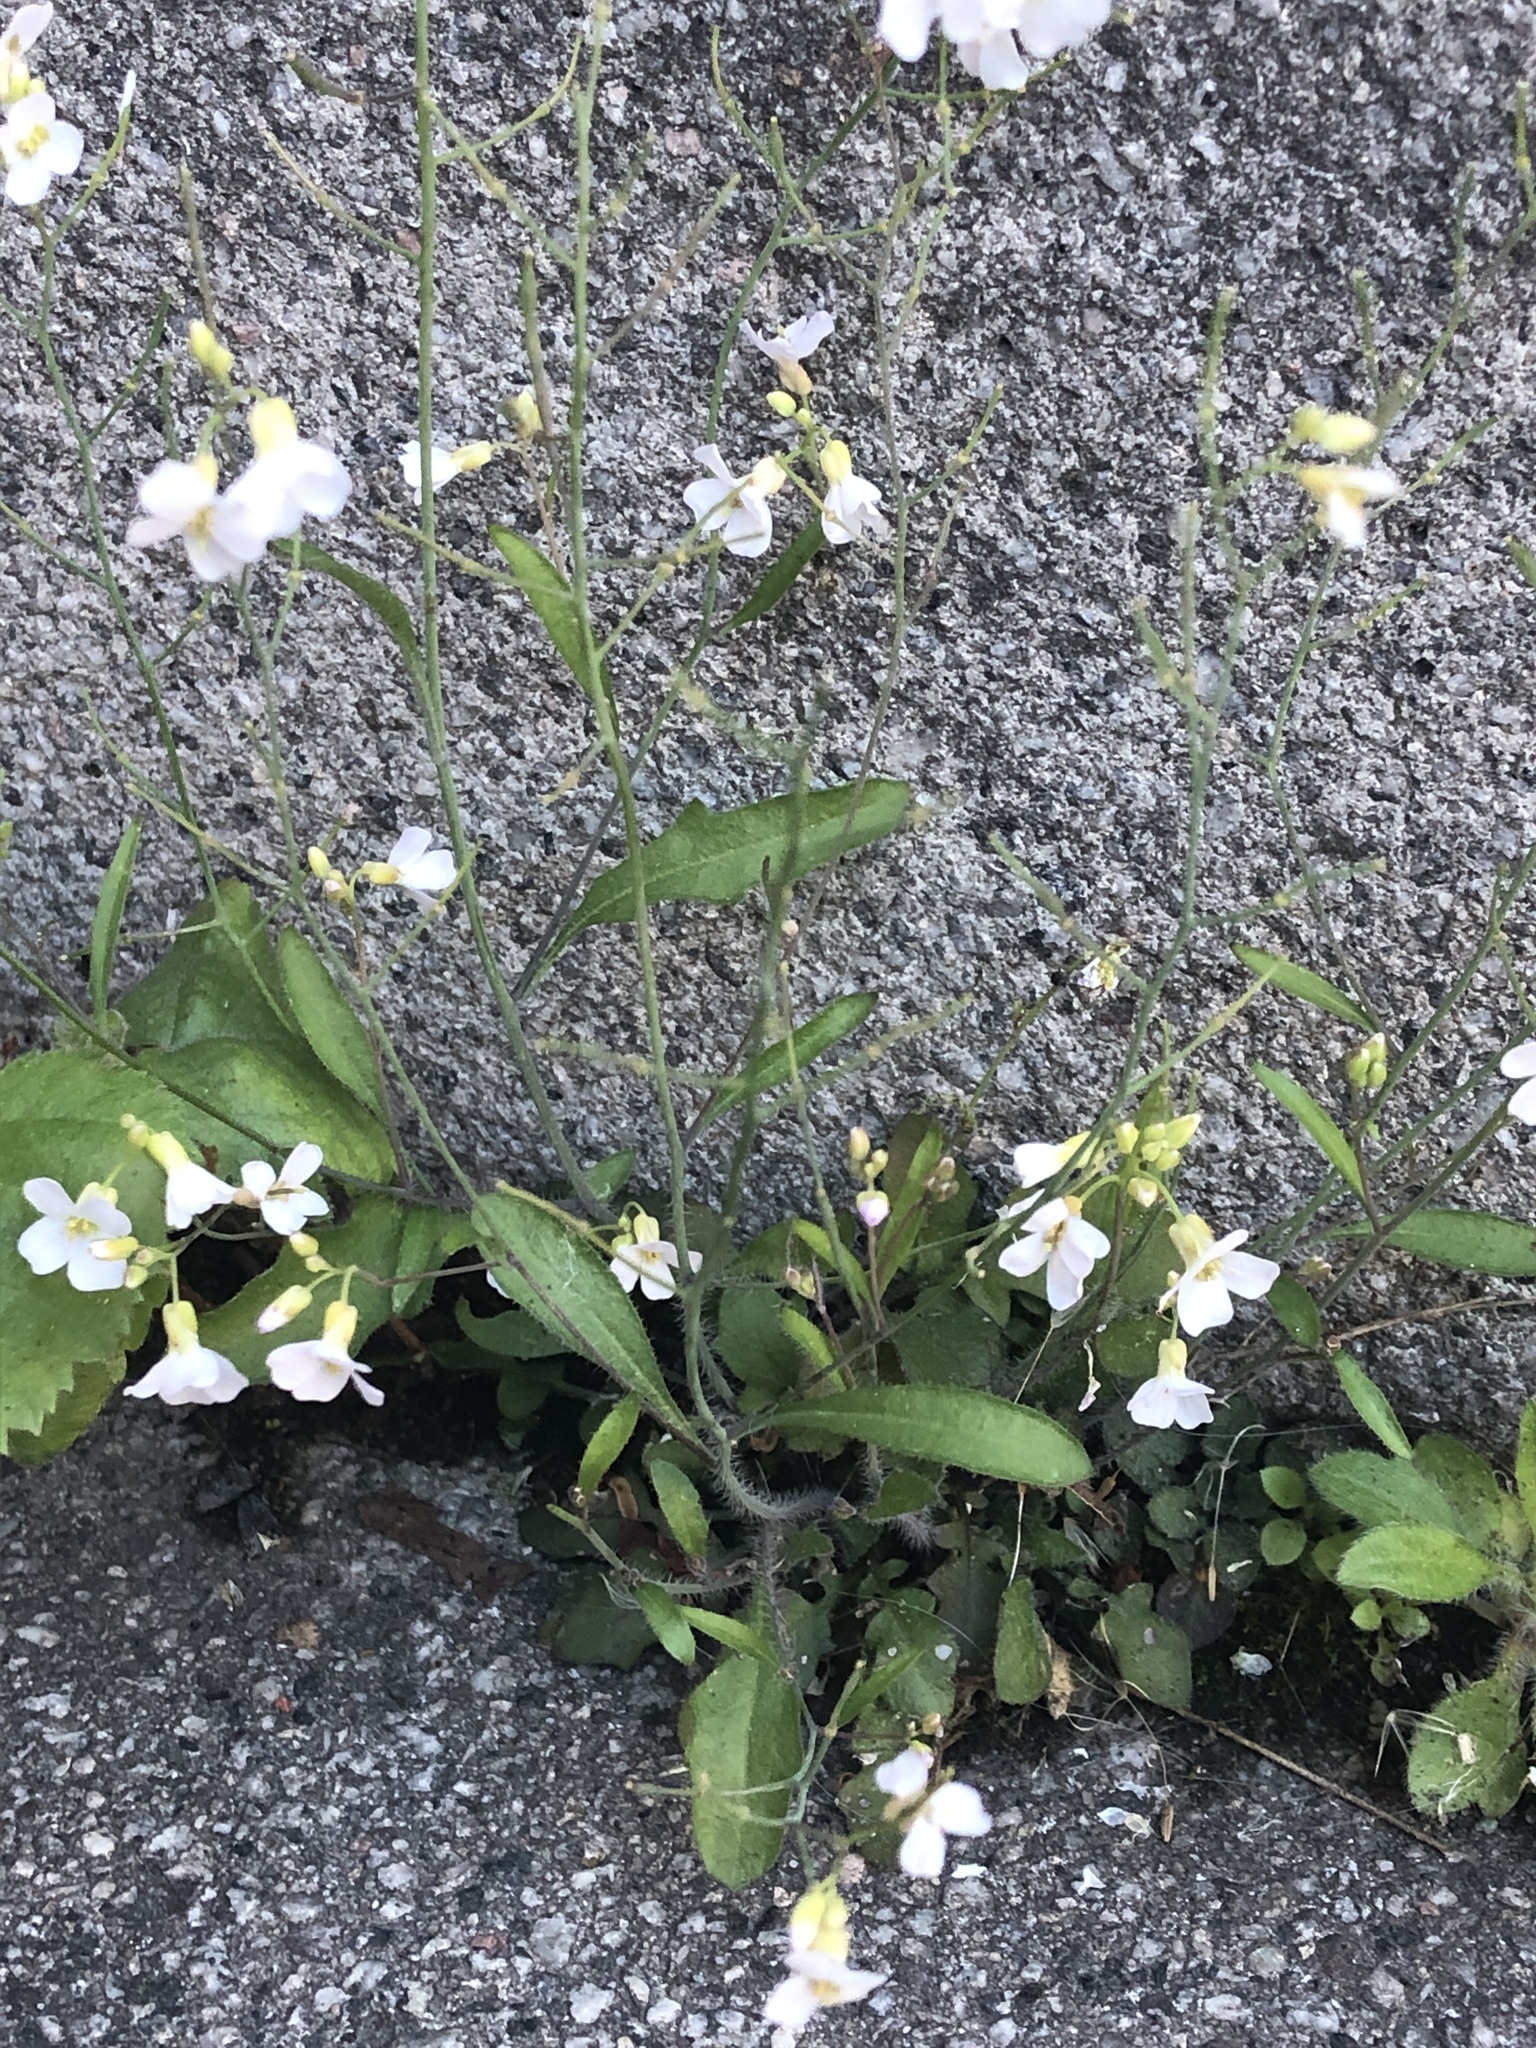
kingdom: Plantae
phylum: Tracheophyta
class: Magnoliopsida
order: Brassicales
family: Brassicaceae
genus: Arabidopsis
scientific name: Arabidopsis arenosa
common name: Sand rock-cress
